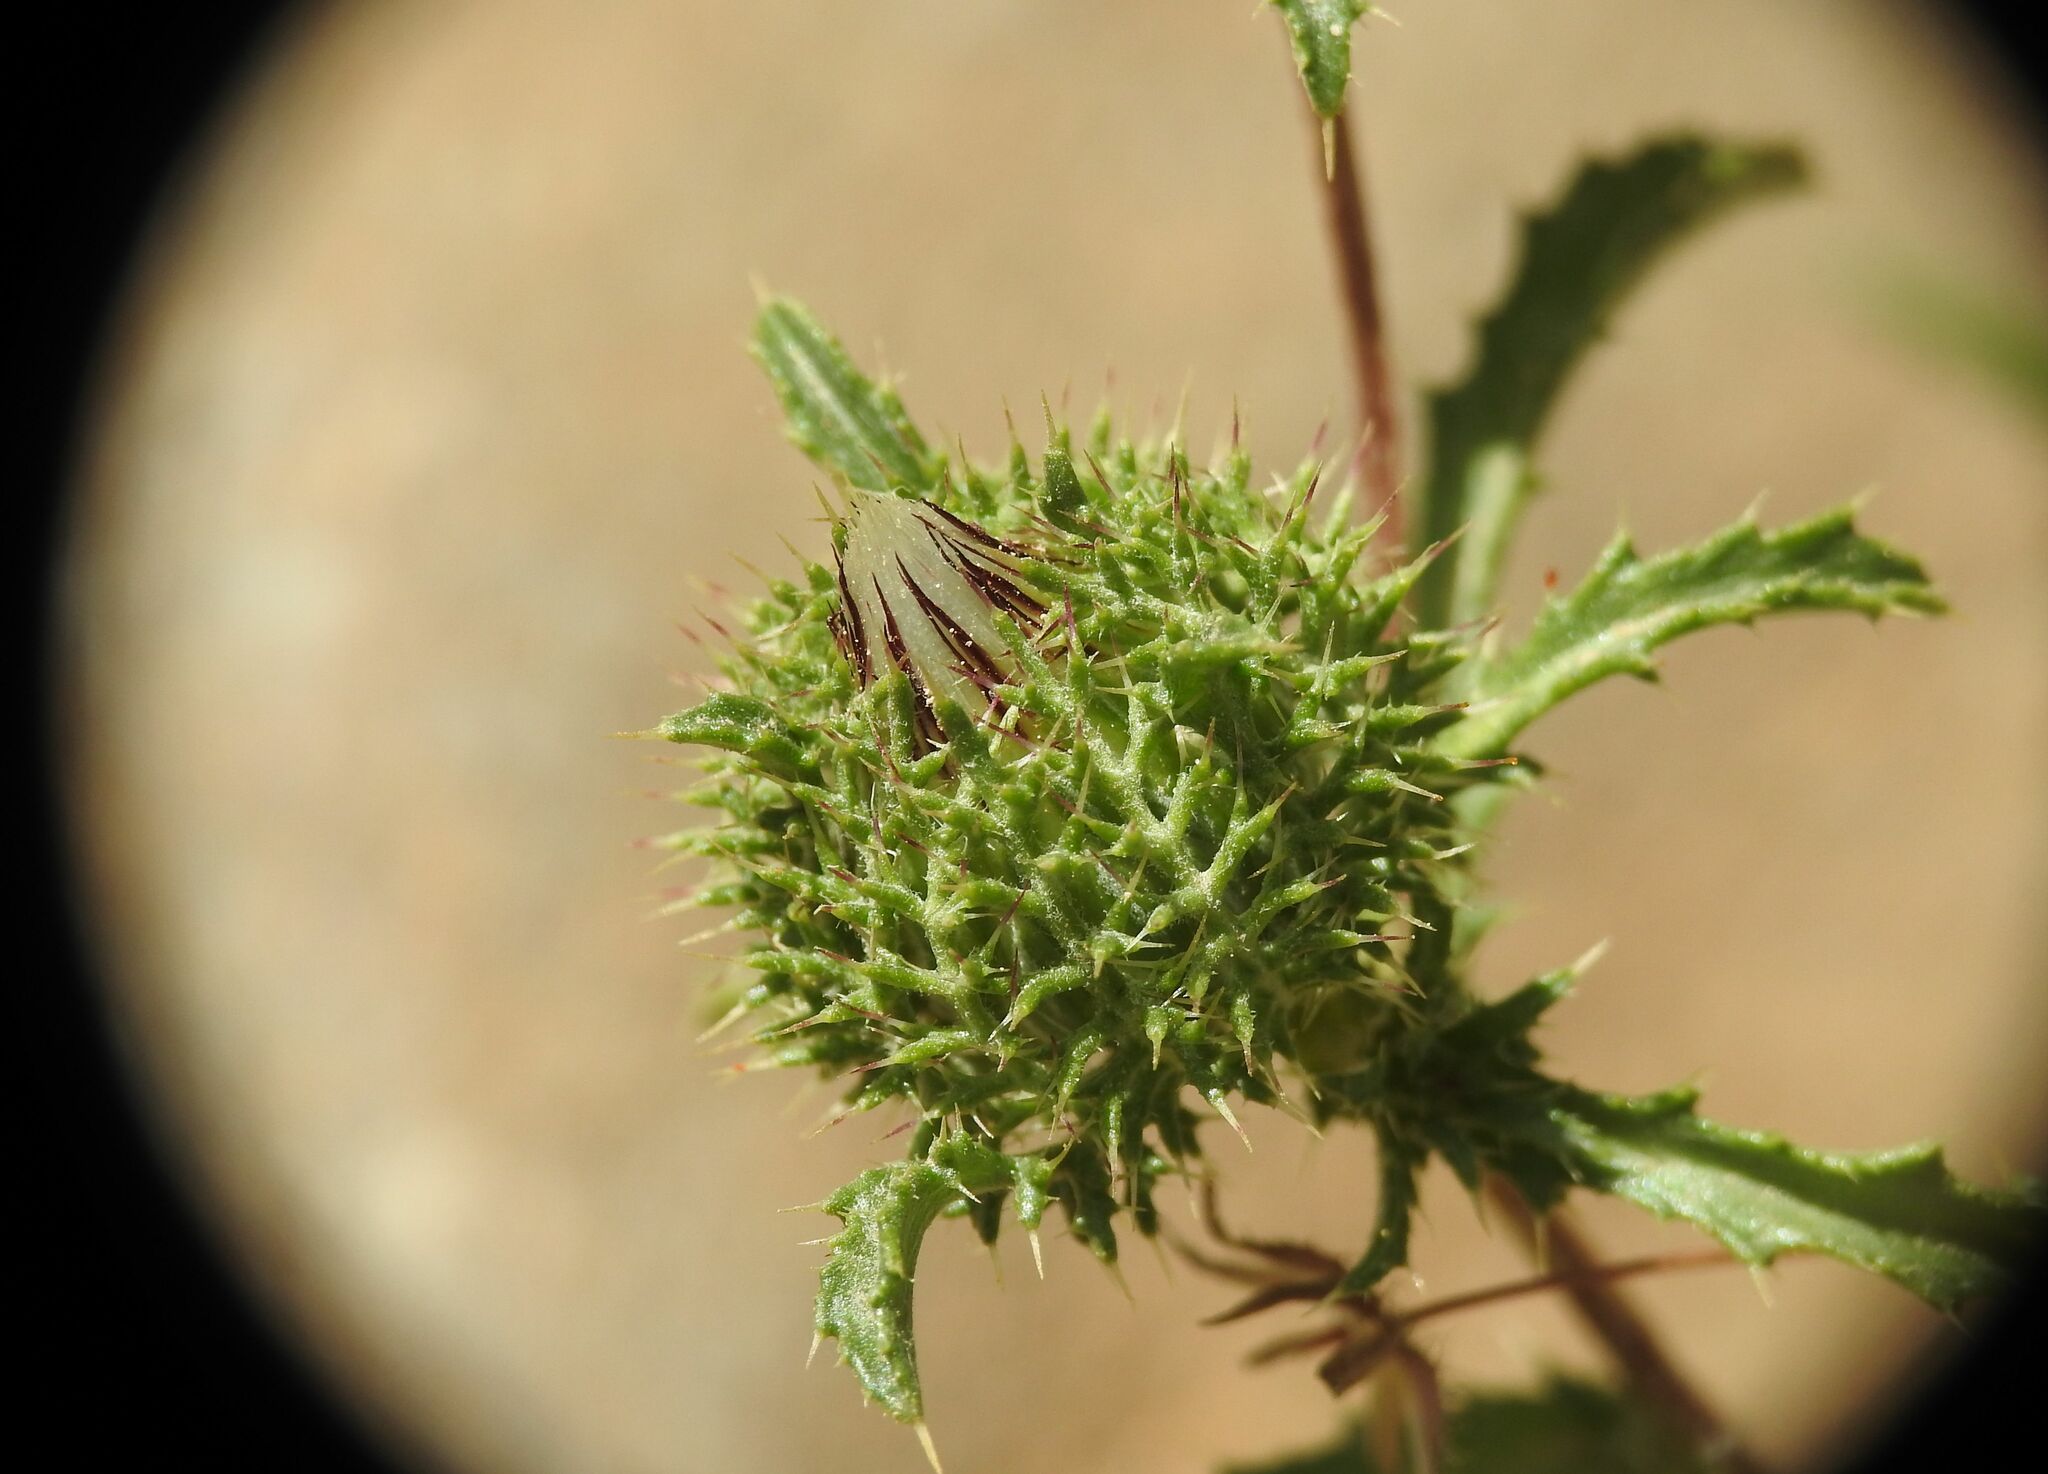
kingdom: Plantae
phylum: Tracheophyta
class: Magnoliopsida
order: Asterales
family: Asteraceae
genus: Atractylis
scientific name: Atractylis cancellata
